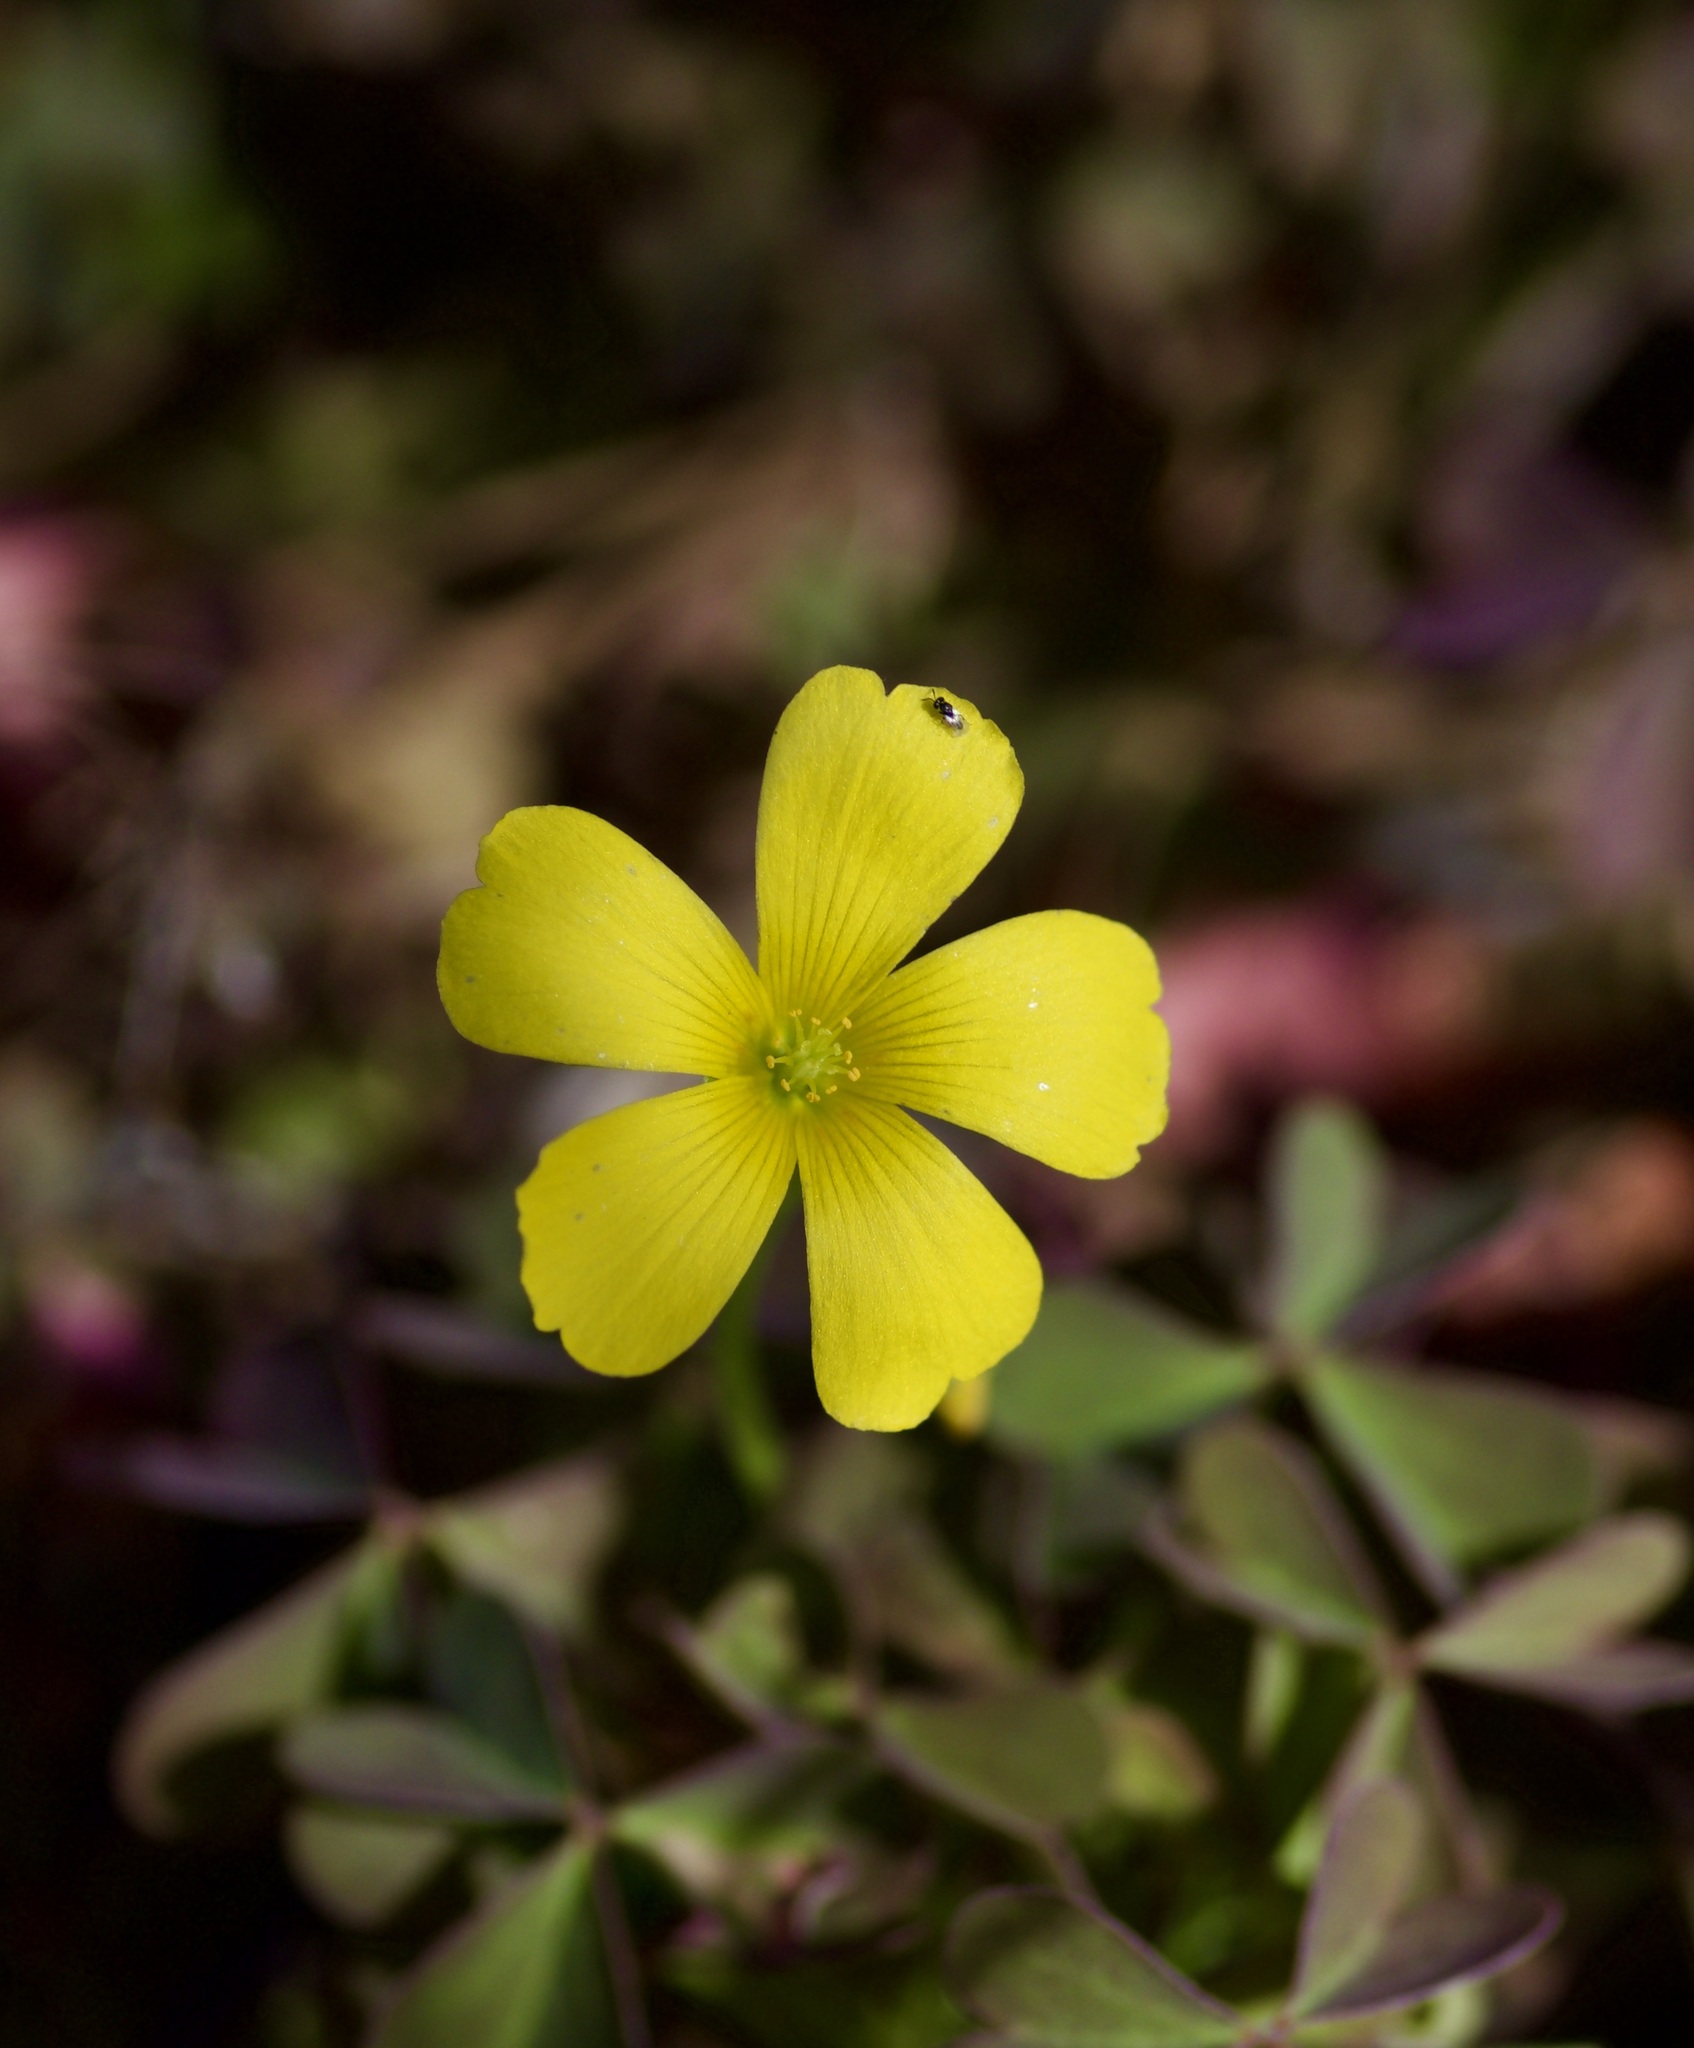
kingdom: Plantae
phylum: Tracheophyta
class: Magnoliopsida
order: Oxalidales
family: Oxalidaceae
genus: Oxalis
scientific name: Oxalis corniculata
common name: Procumbent yellow-sorrel
